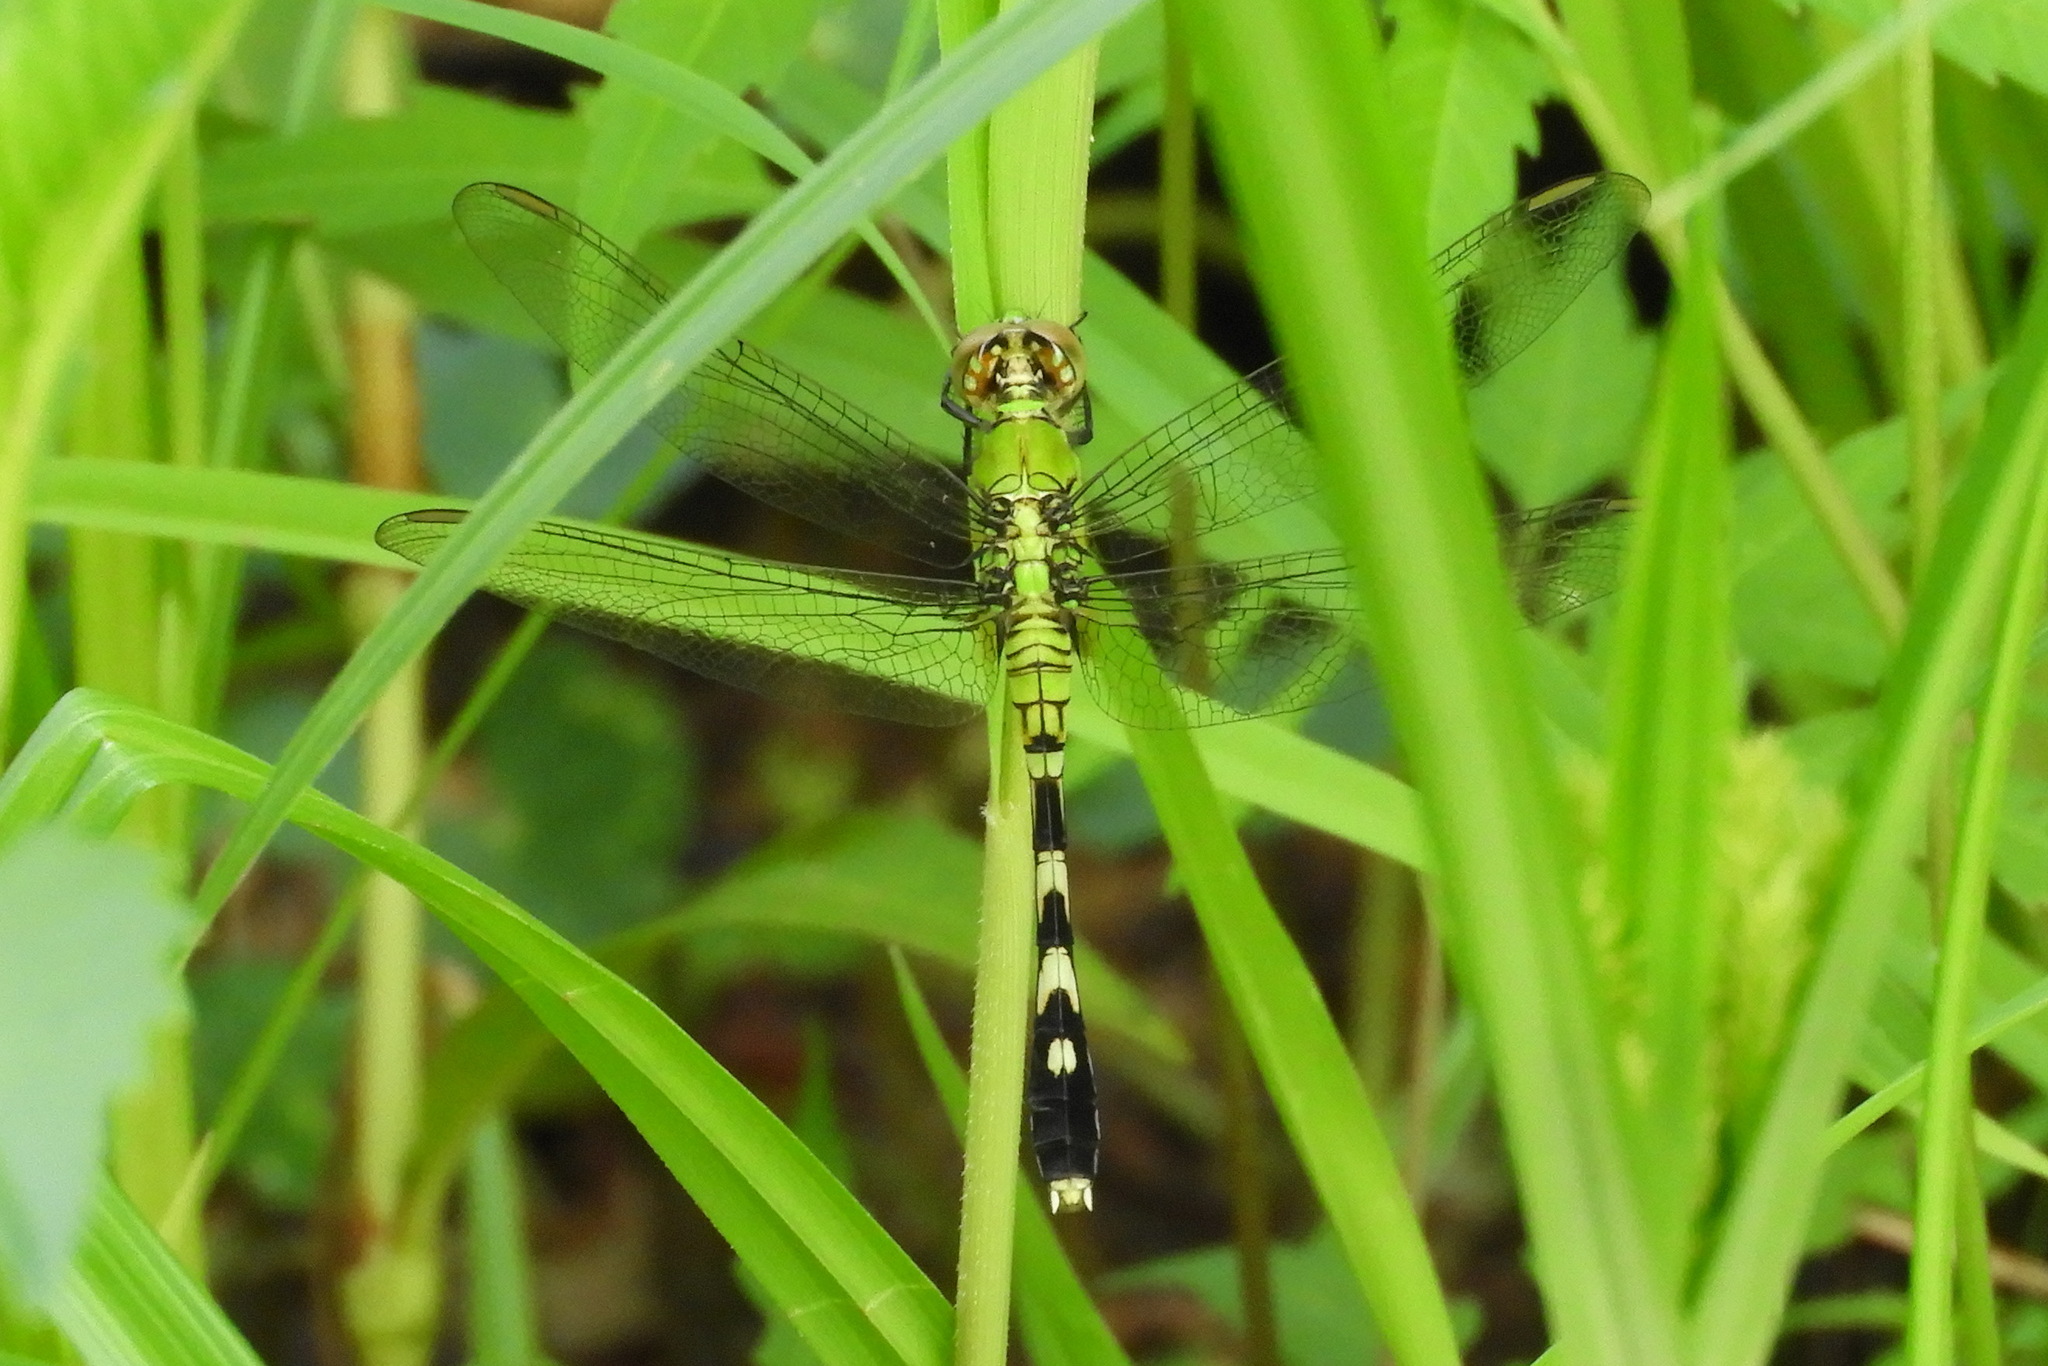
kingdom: Animalia
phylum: Arthropoda
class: Insecta
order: Odonata
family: Libellulidae
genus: Erythemis
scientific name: Erythemis simplicicollis
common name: Eastern pondhawk
